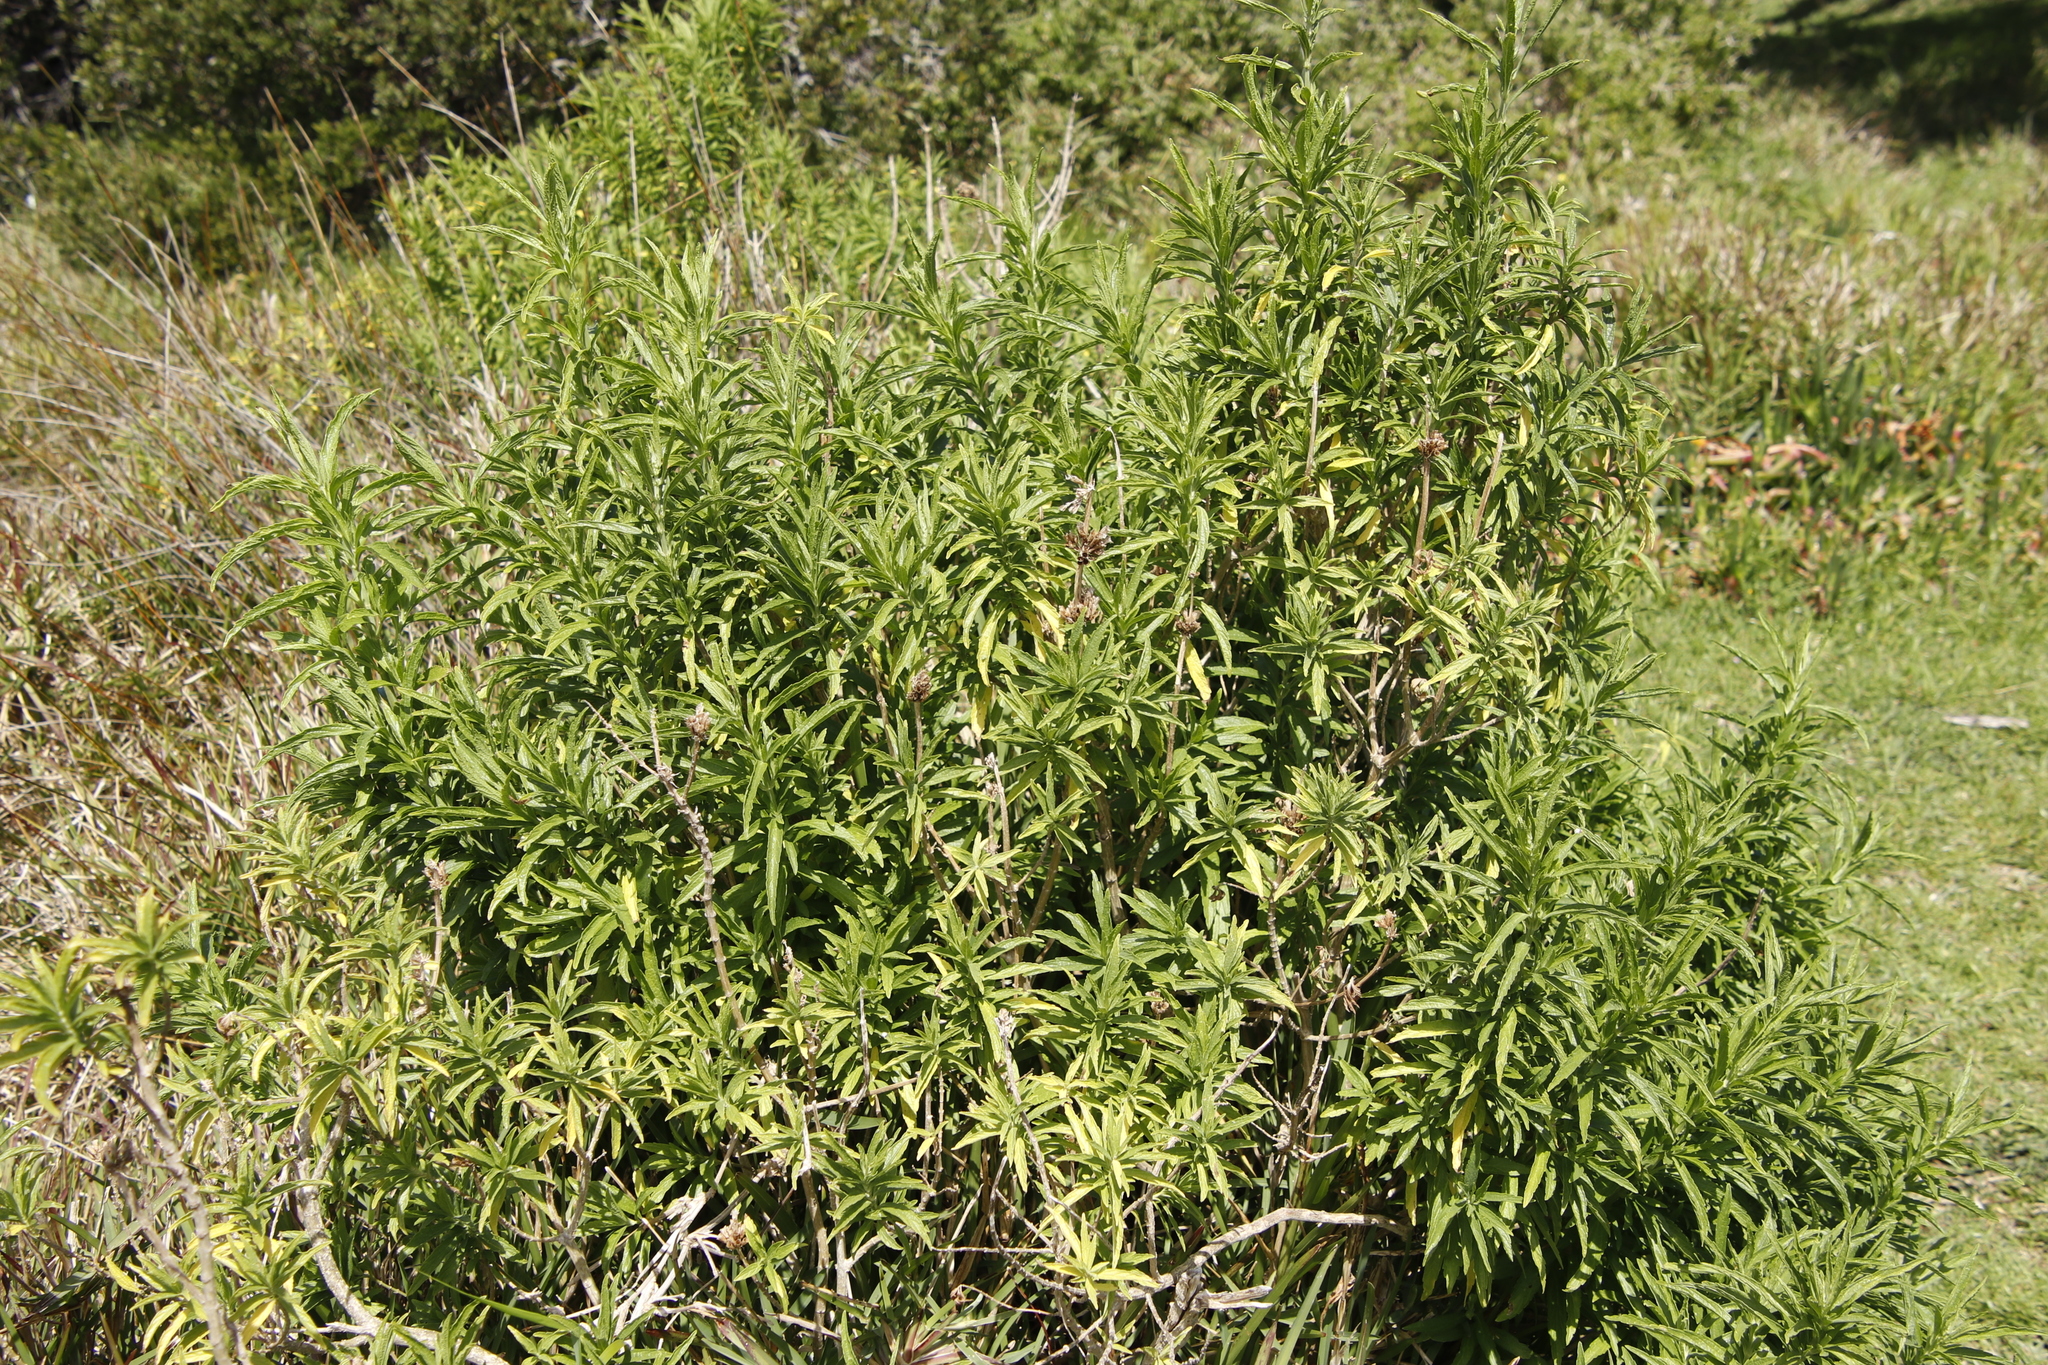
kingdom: Plantae
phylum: Tracheophyta
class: Magnoliopsida
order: Lamiales
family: Lamiaceae
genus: Leonotis
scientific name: Leonotis leonurus
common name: Lion's ear
